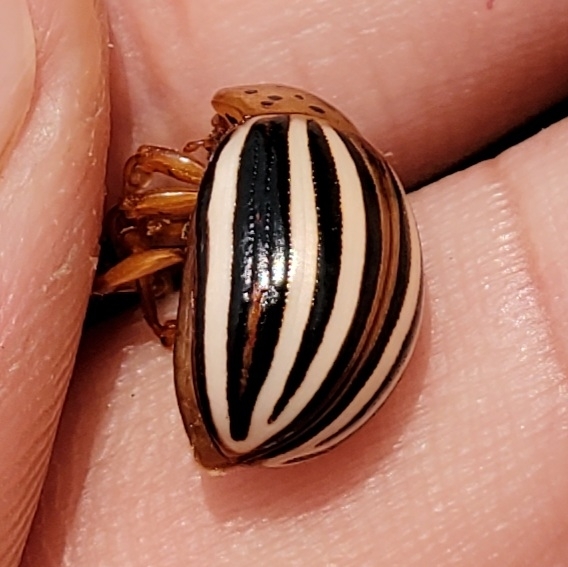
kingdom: Animalia
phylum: Arthropoda
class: Insecta
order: Coleoptera
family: Chrysomelidae
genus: Leptinotarsa
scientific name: Leptinotarsa juncta
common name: False potato beetle
